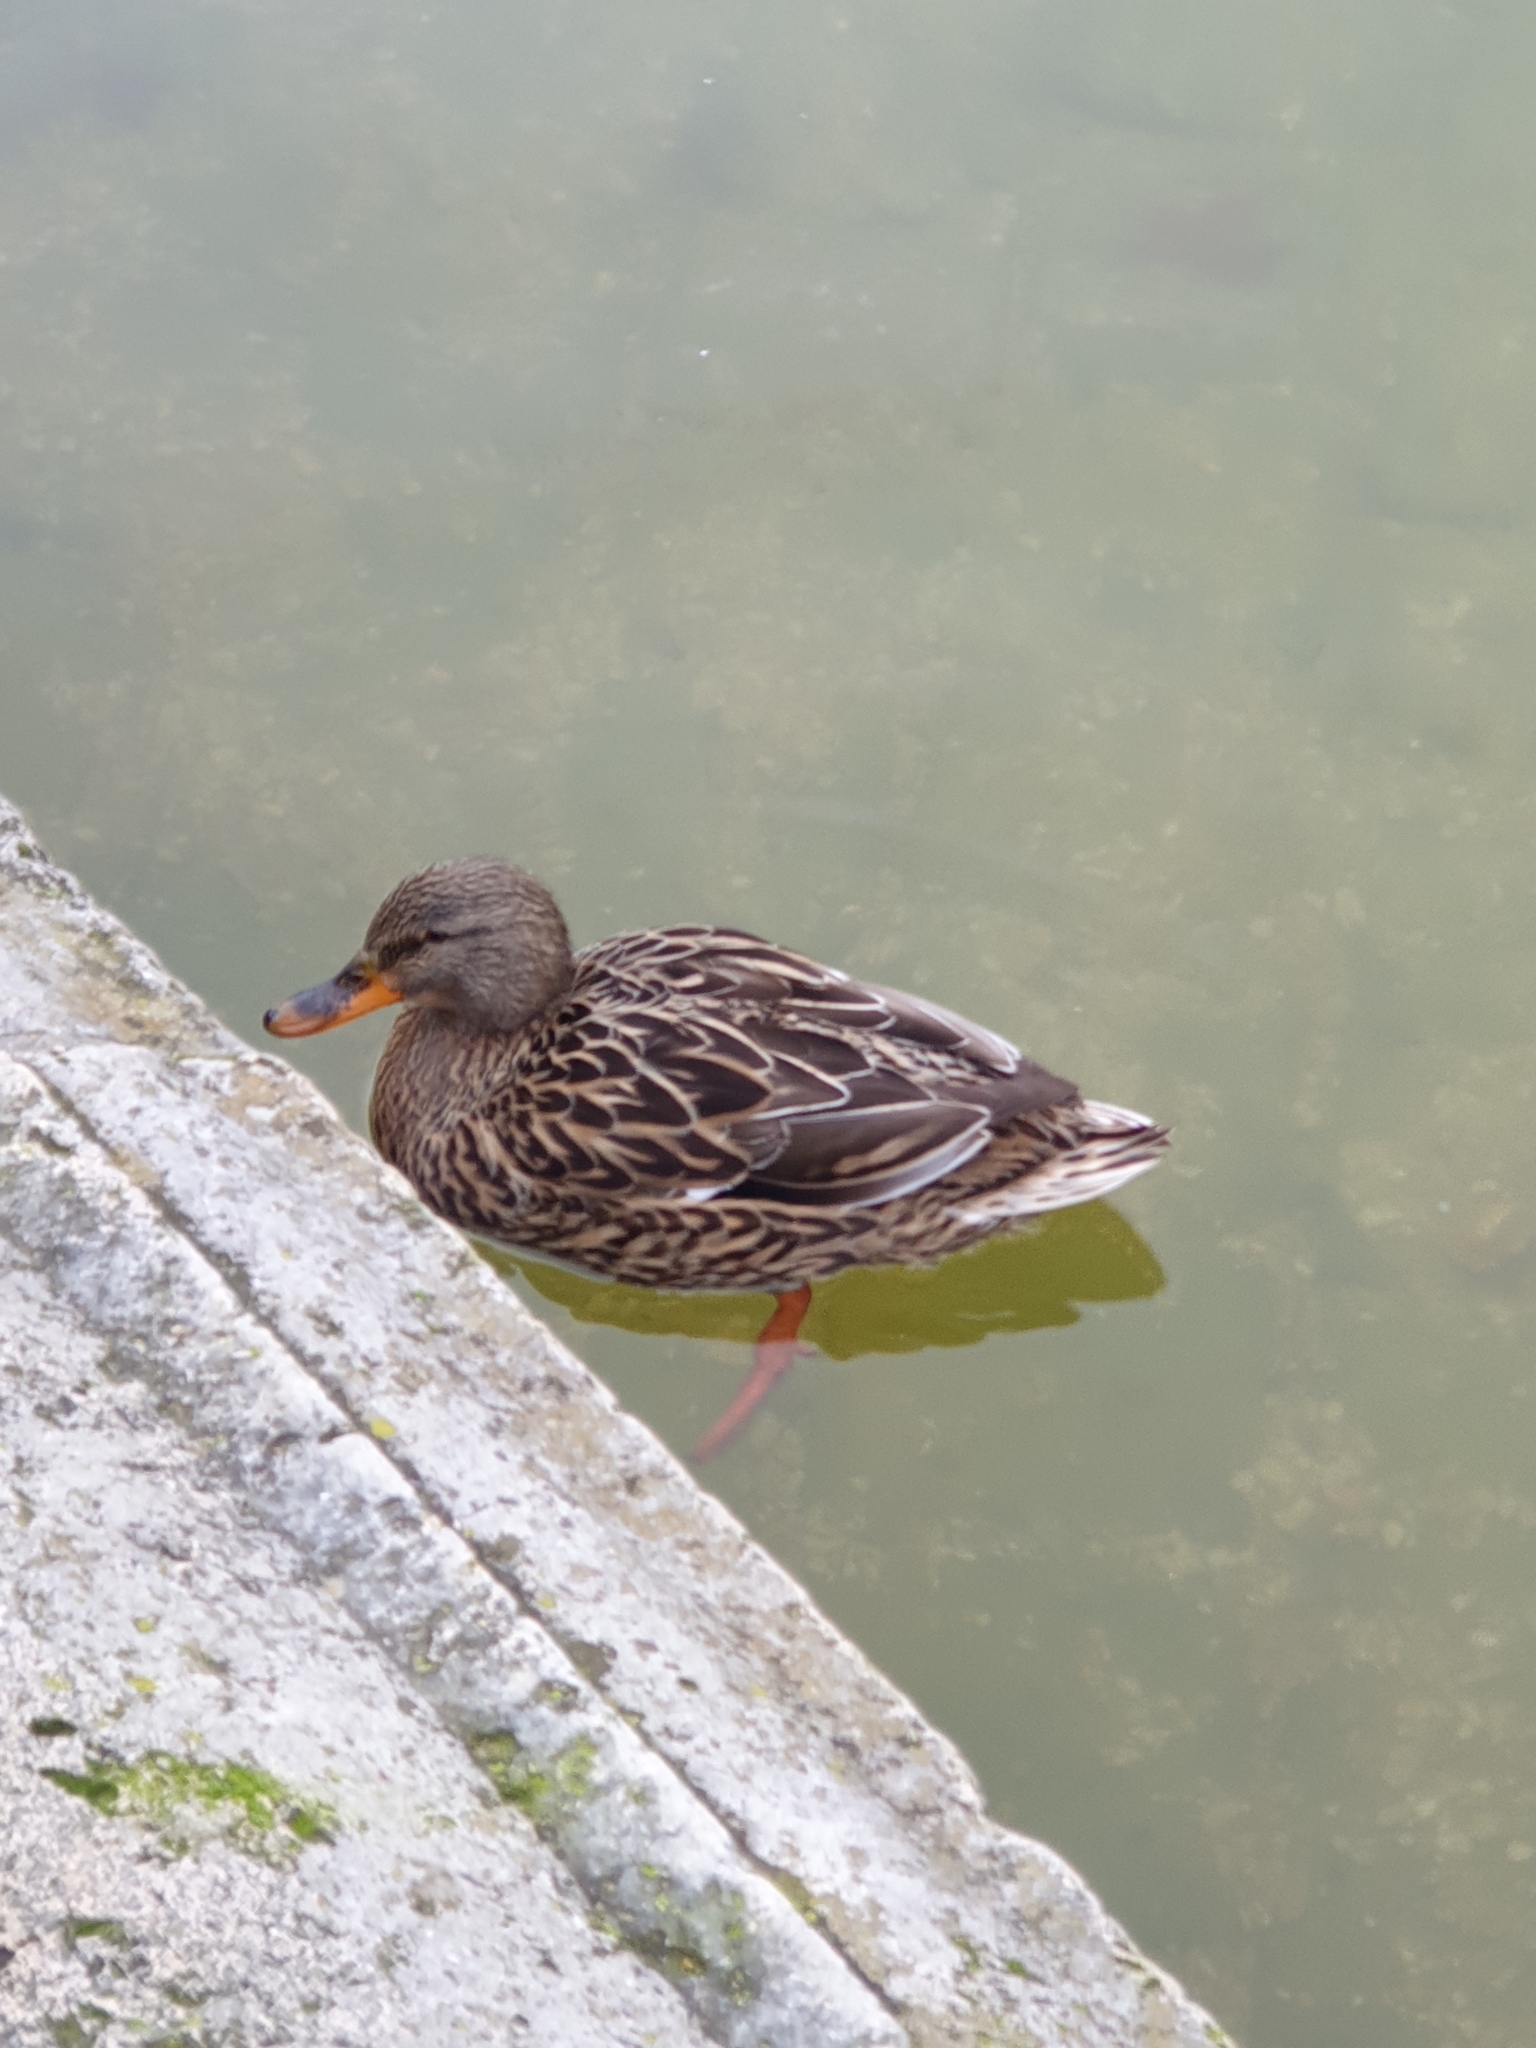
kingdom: Animalia
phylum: Chordata
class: Aves
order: Anseriformes
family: Anatidae
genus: Anas
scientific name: Anas platyrhynchos
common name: Mallard
